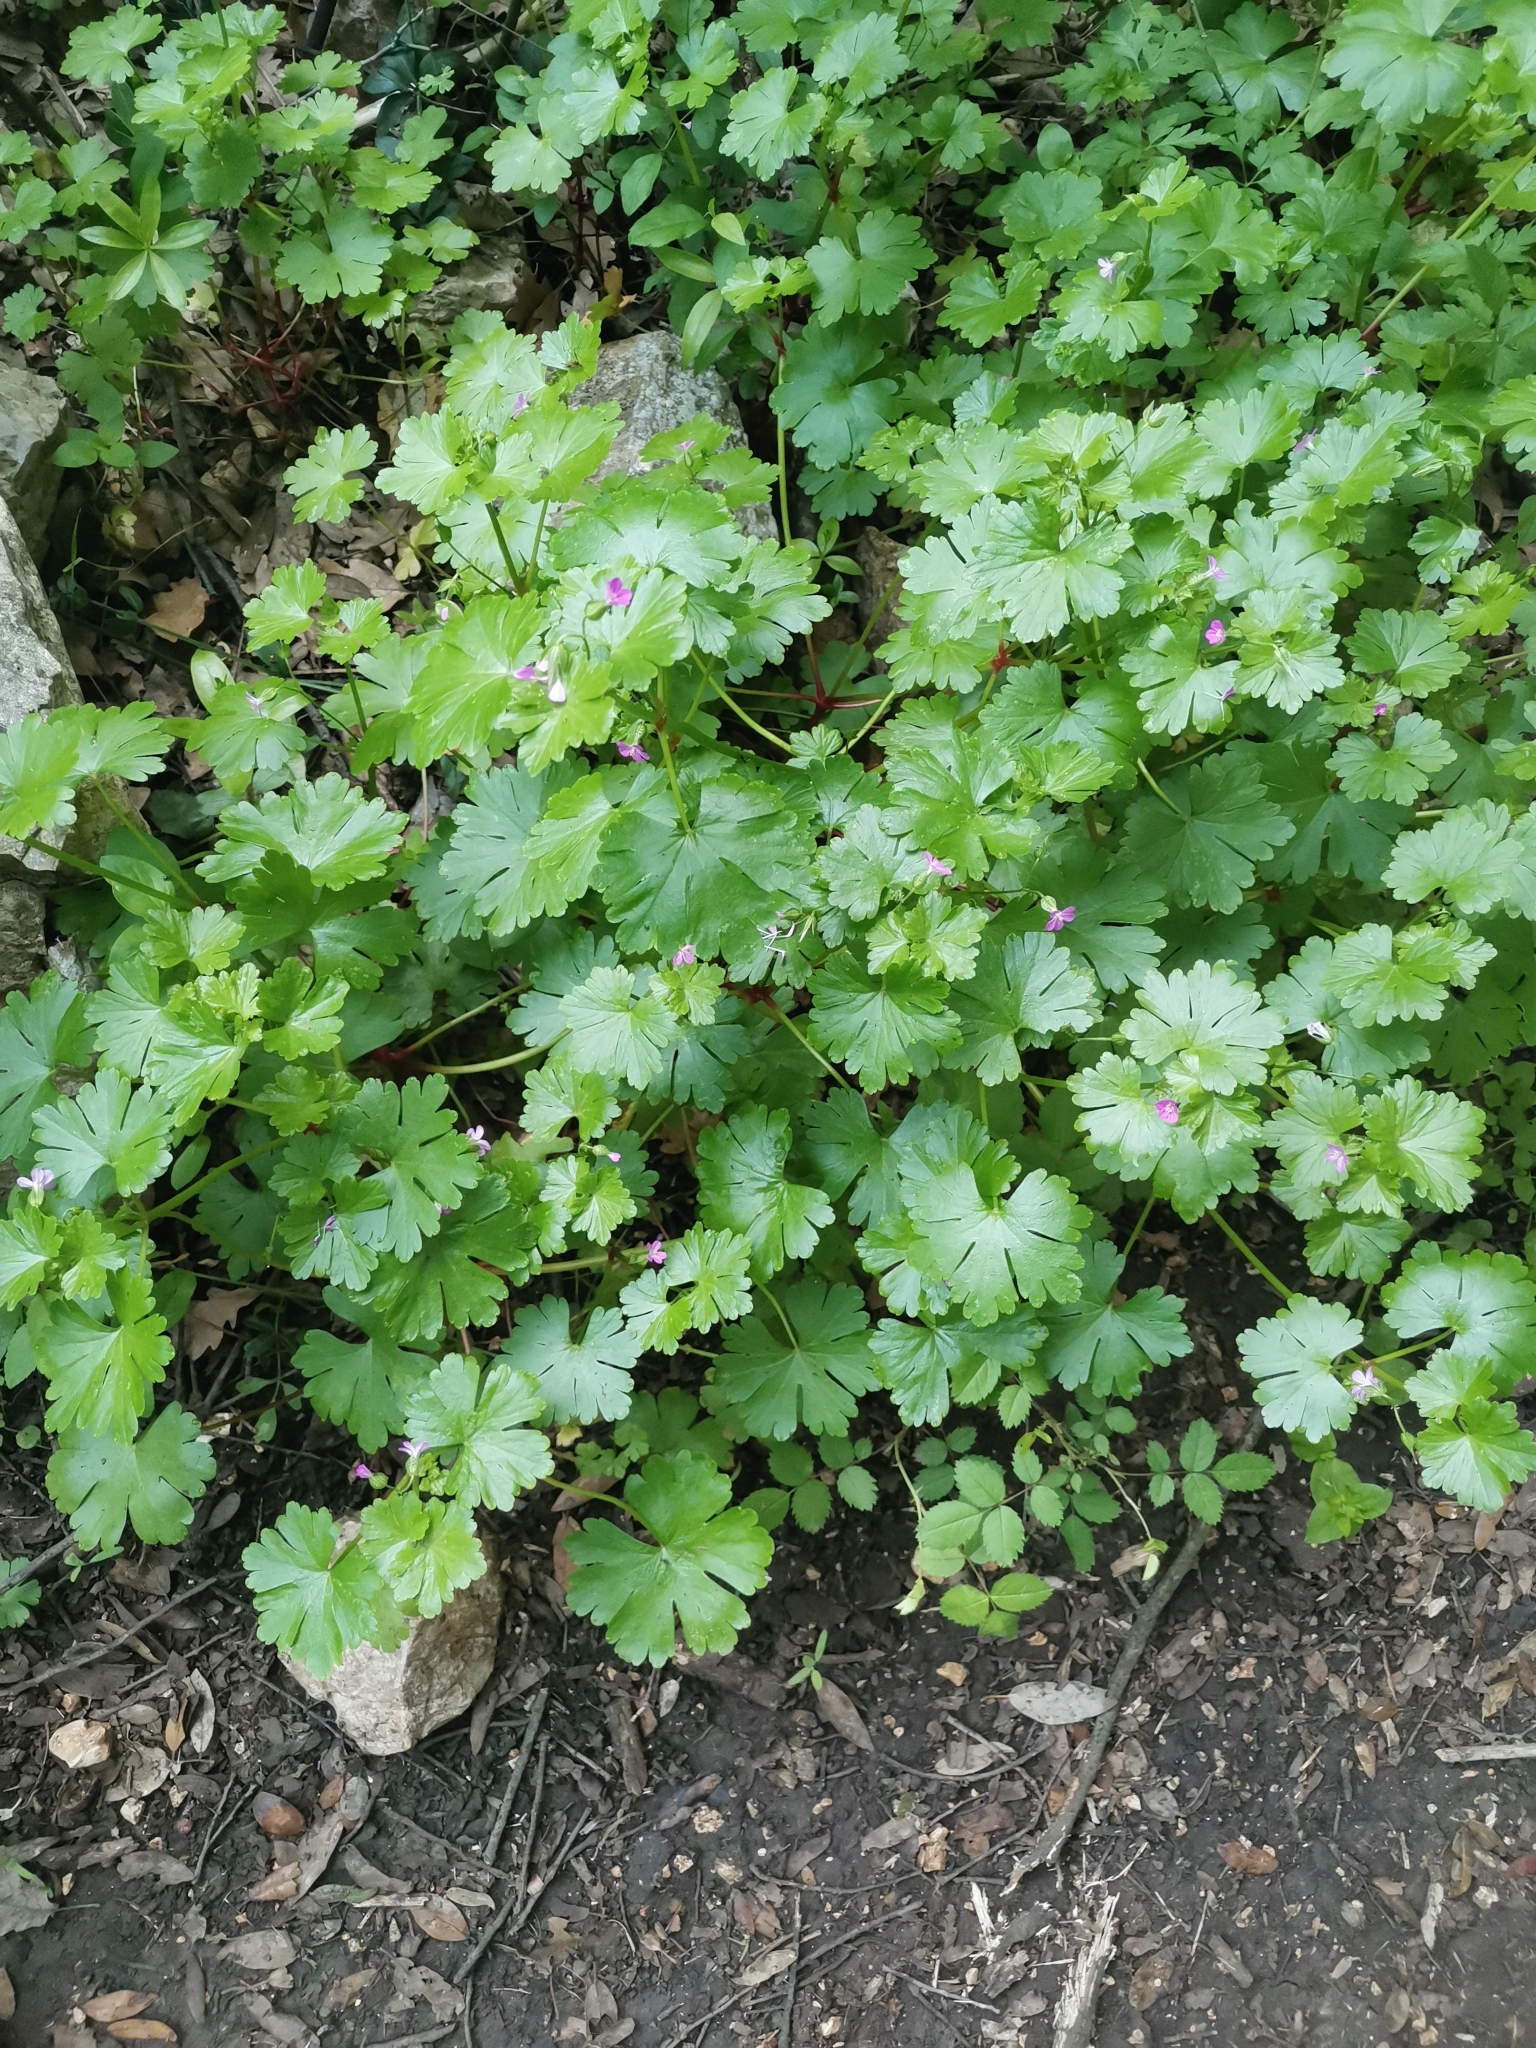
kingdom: Plantae
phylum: Tracheophyta
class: Magnoliopsida
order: Geraniales
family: Geraniaceae
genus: Geranium
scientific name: Geranium lucidum
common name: Shining crane's-bill
